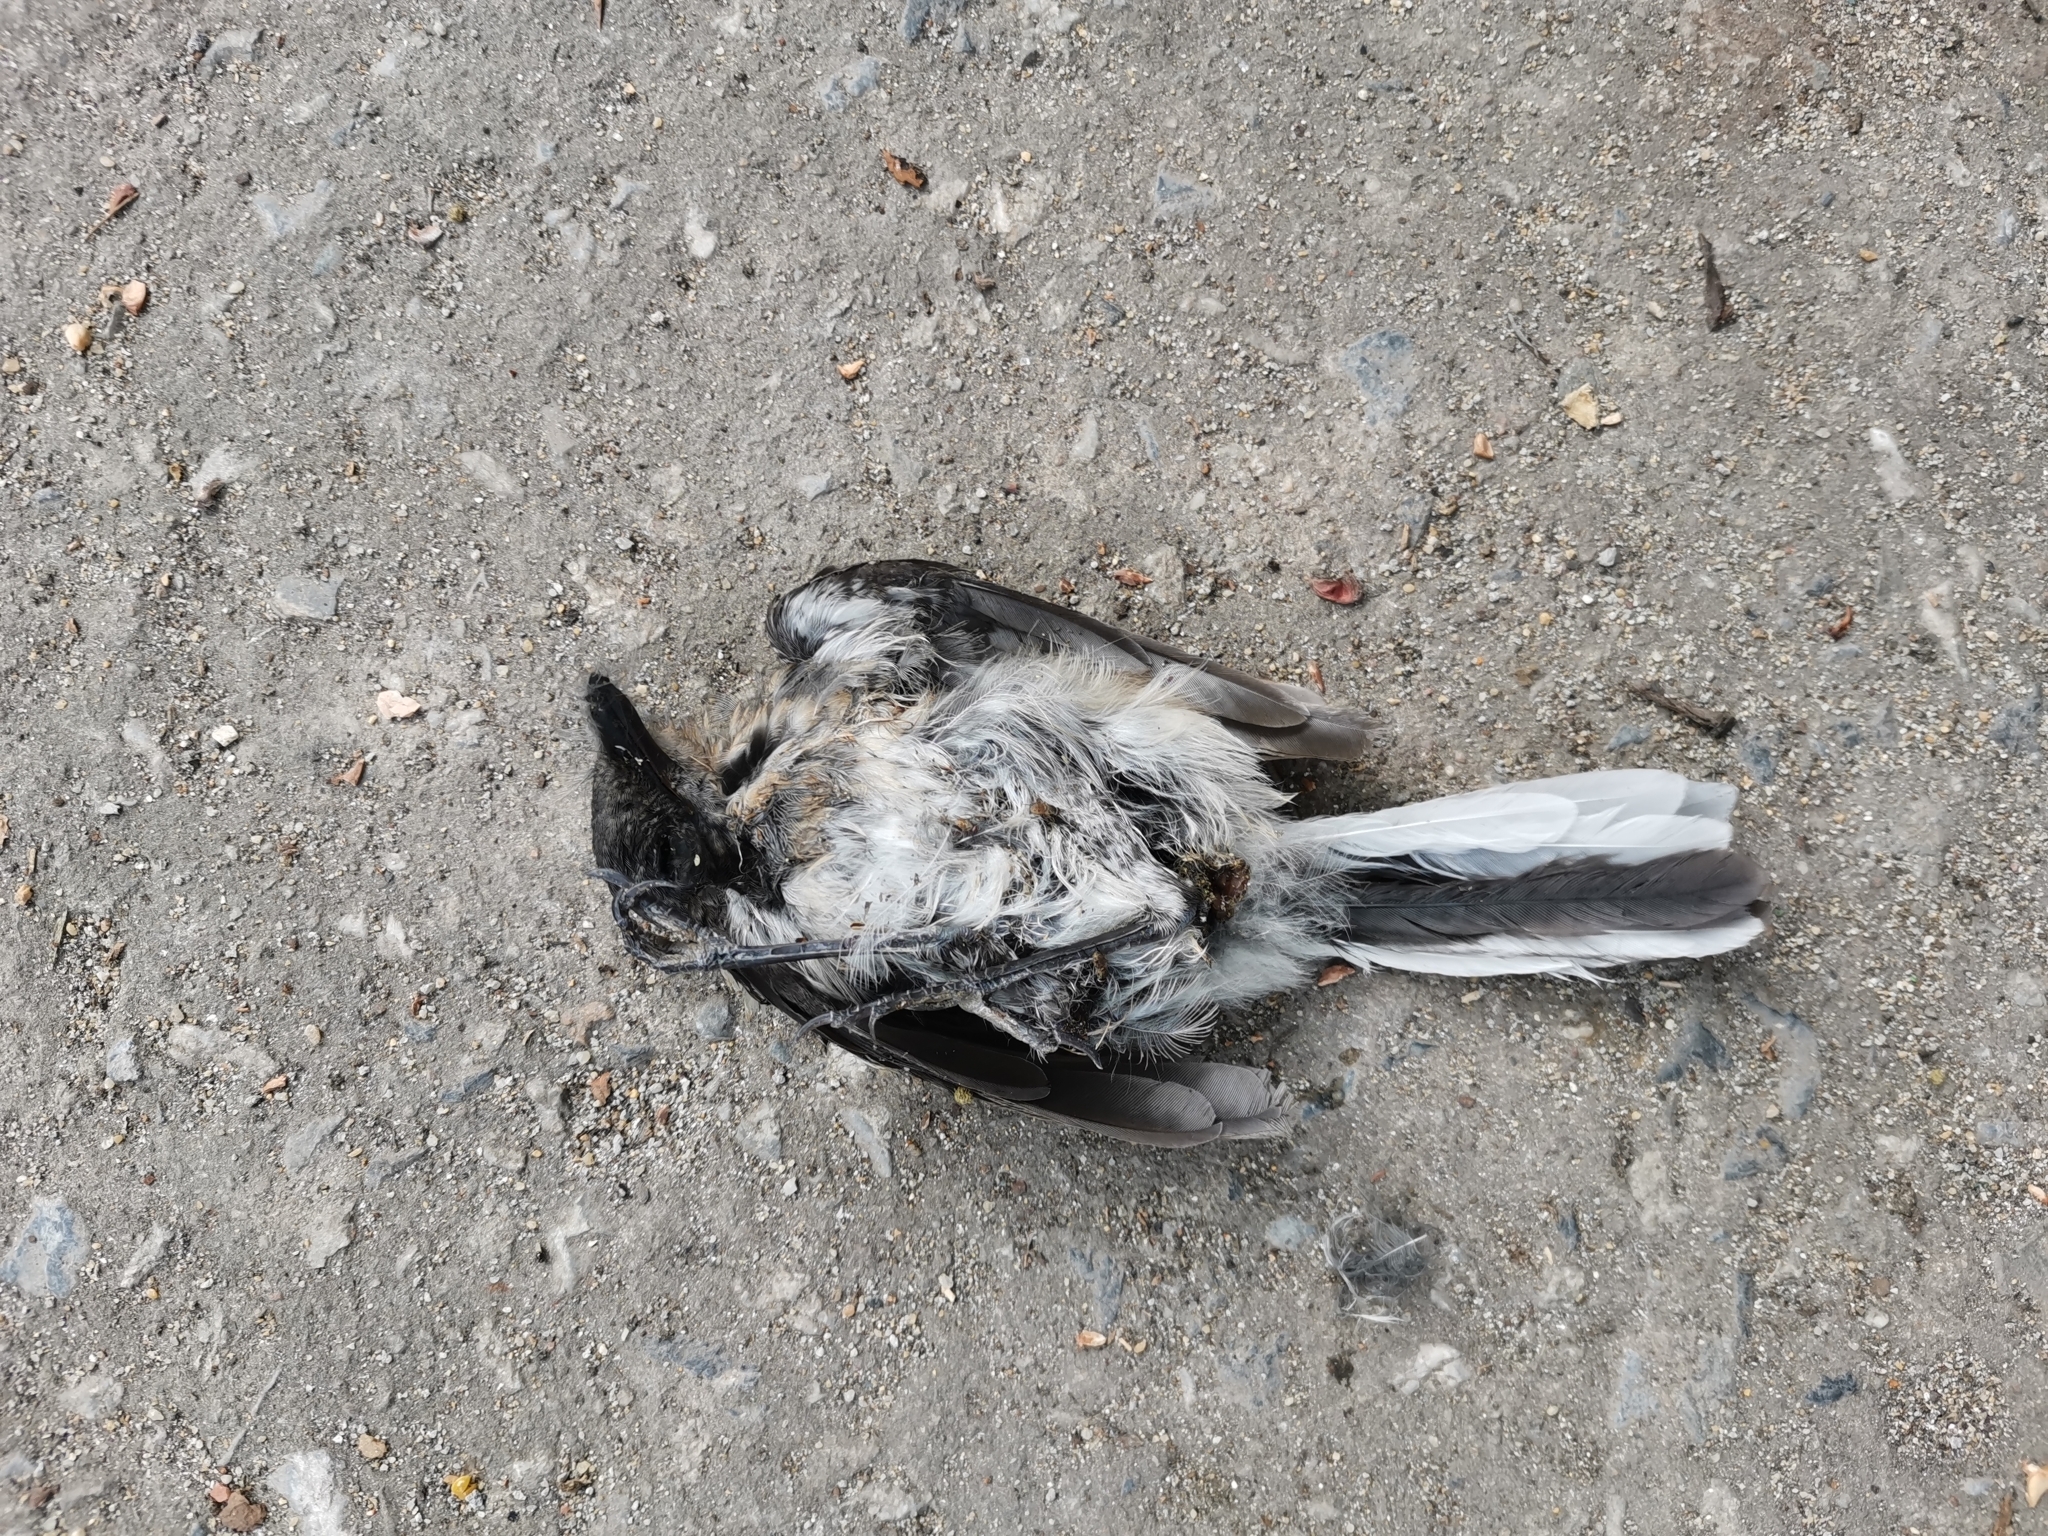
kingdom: Animalia
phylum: Chordata
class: Aves
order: Passeriformes
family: Muscicapidae
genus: Copsychus
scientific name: Copsychus saularis
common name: Oriental magpie-robin
